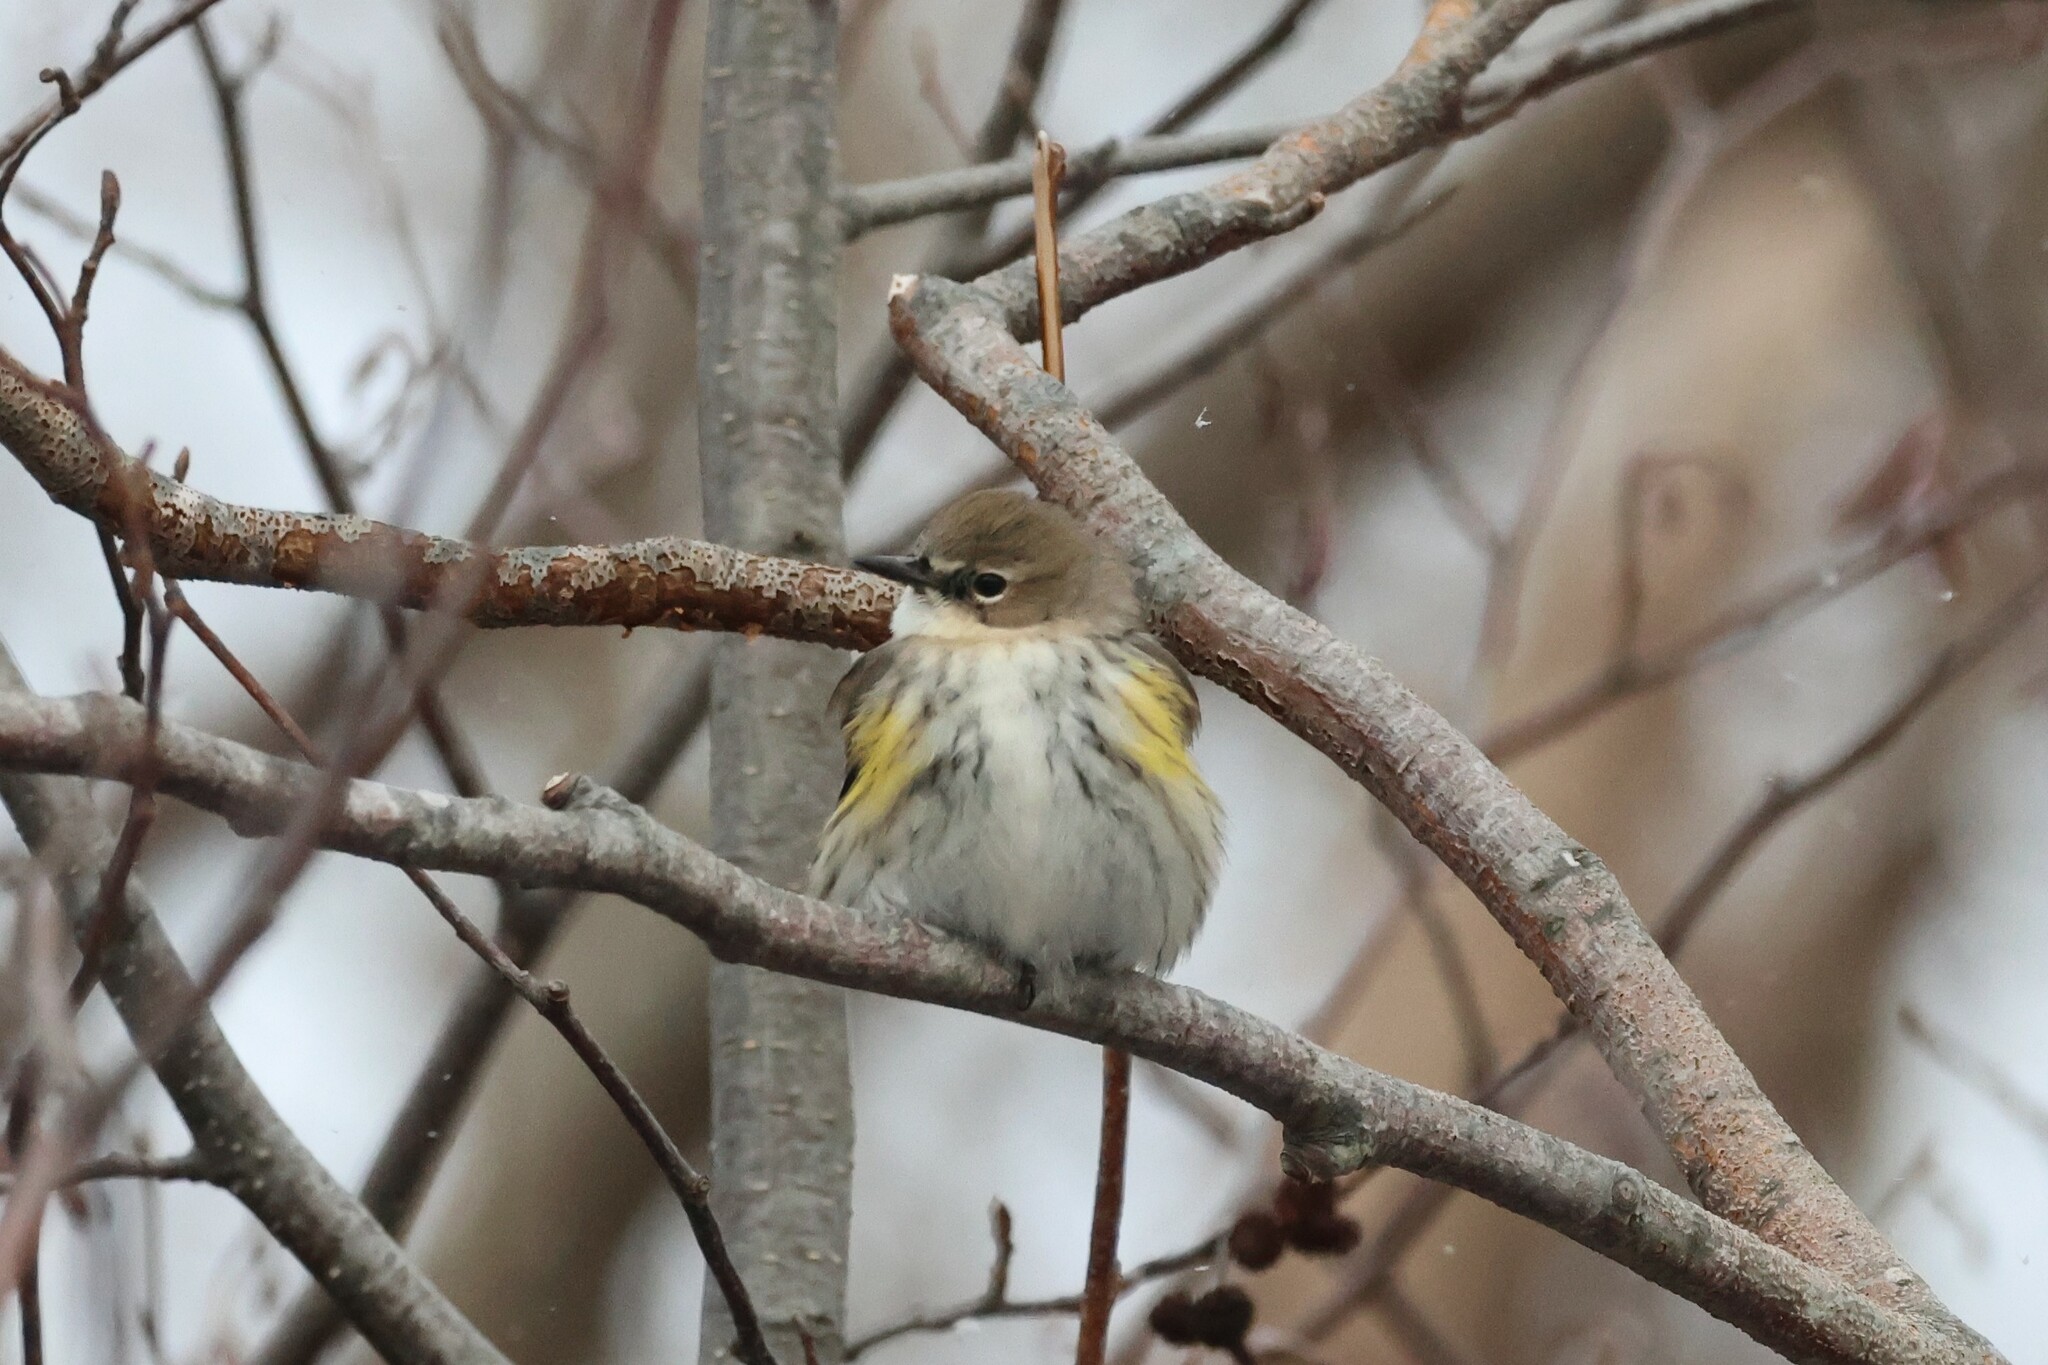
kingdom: Animalia
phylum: Chordata
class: Aves
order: Passeriformes
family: Parulidae
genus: Setophaga
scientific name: Setophaga coronata
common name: Myrtle warbler
